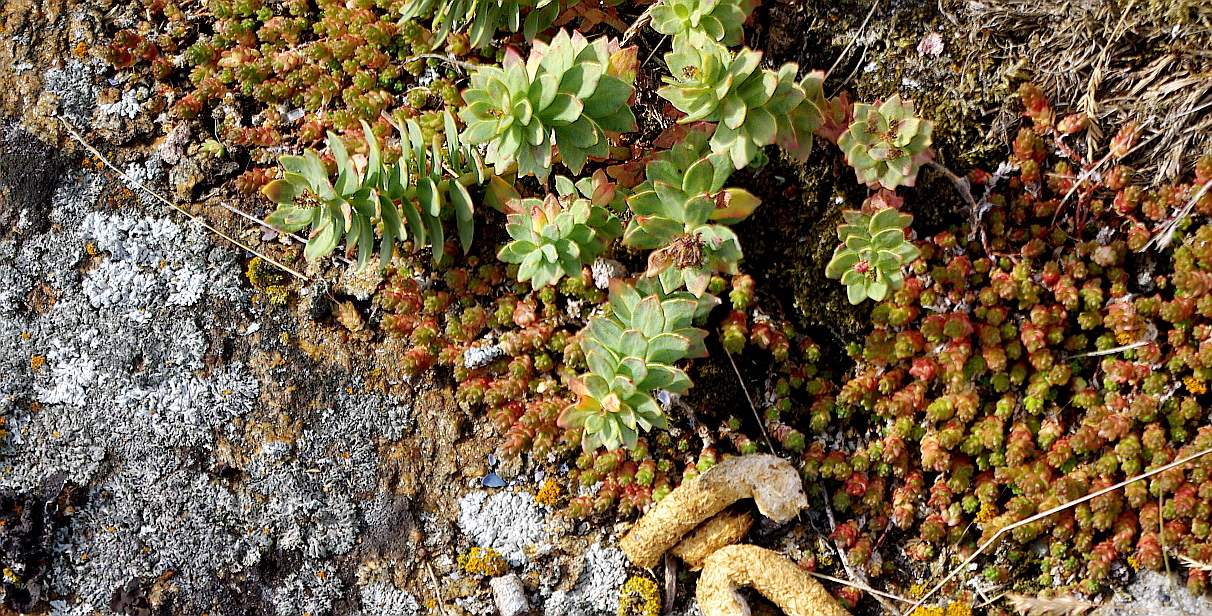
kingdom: Plantae
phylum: Tracheophyta
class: Magnoliopsida
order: Saxifragales
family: Crassulaceae
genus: Rhodiola
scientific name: Rhodiola rosea
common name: Roseroot
